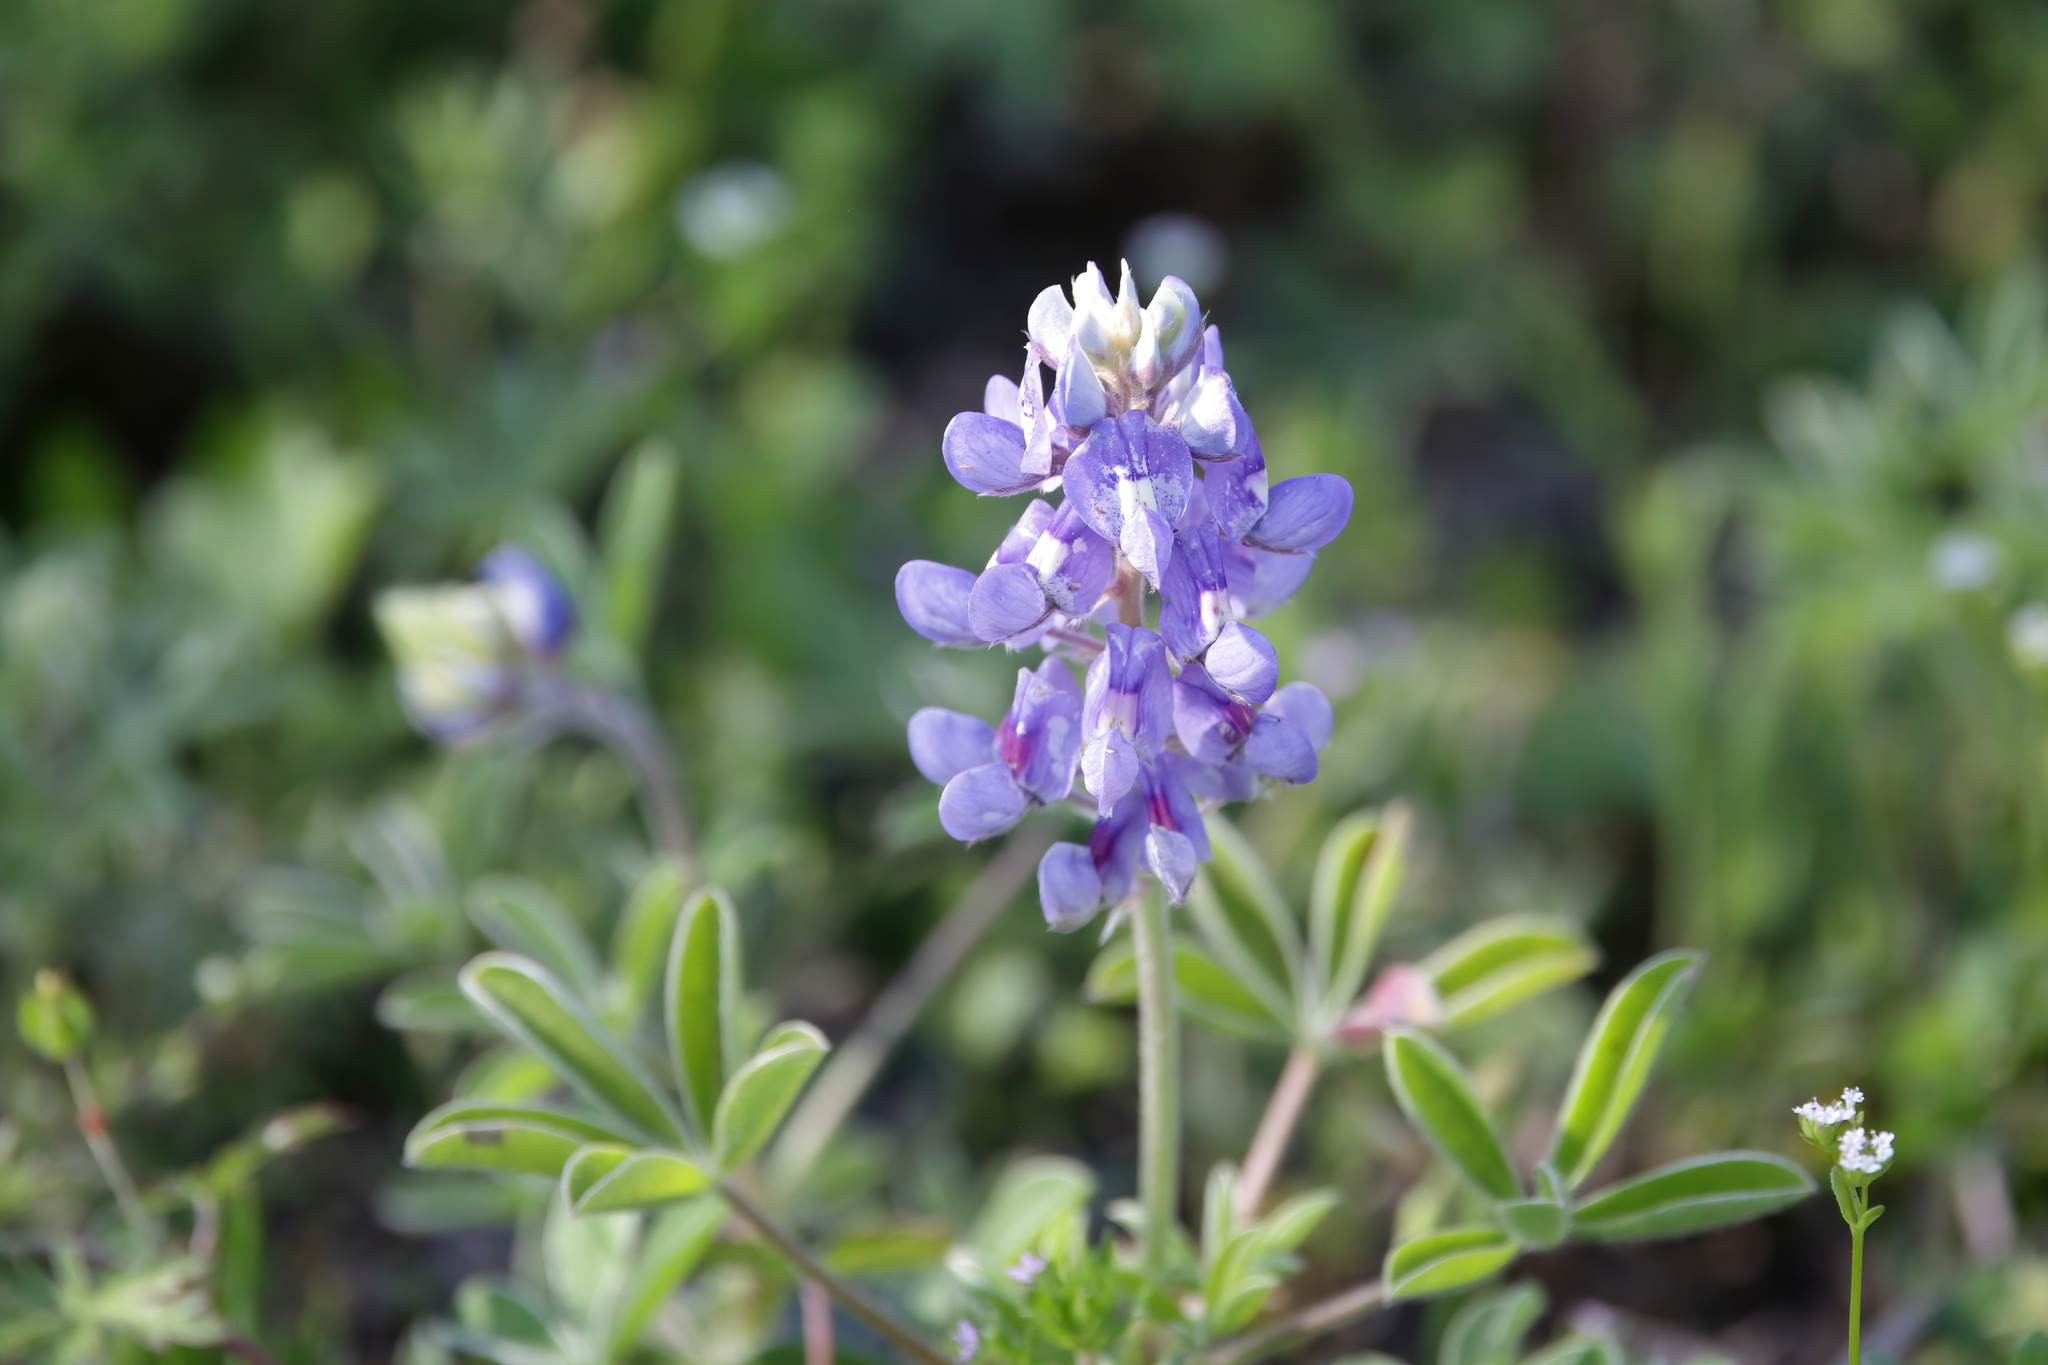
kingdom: Plantae
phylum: Tracheophyta
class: Magnoliopsida
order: Fabales
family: Fabaceae
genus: Lupinus
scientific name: Lupinus texensis
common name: Texas bluebonnet
